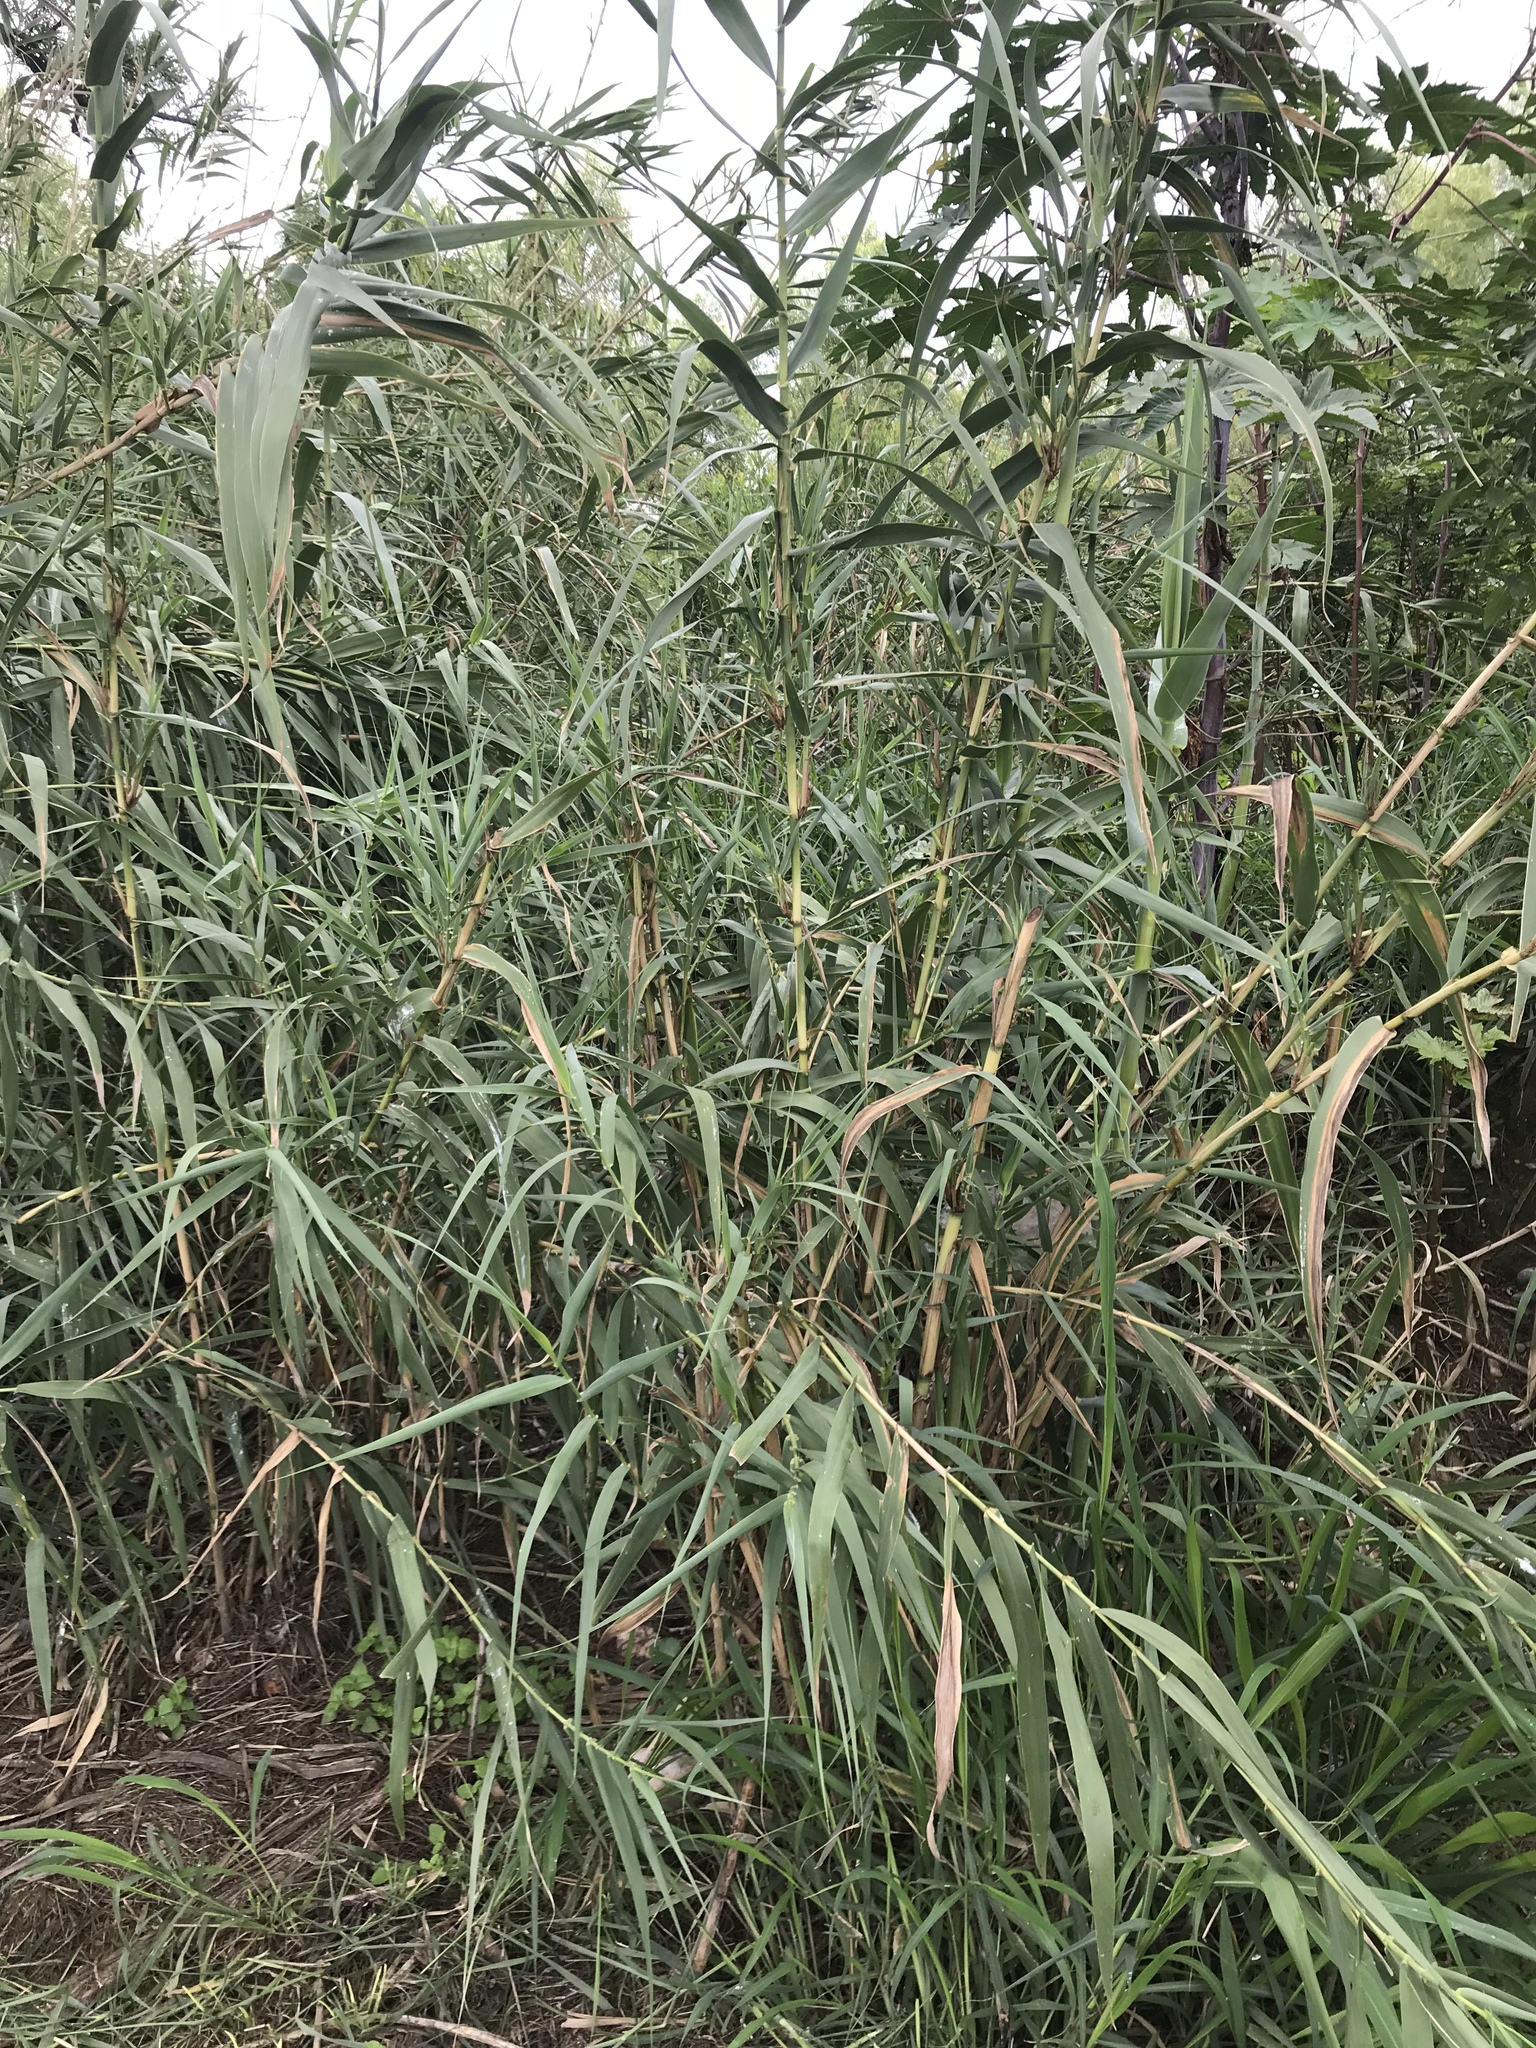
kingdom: Plantae
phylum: Tracheophyta
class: Liliopsida
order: Poales
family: Poaceae
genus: Arundo
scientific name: Arundo donax
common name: Giant reed
